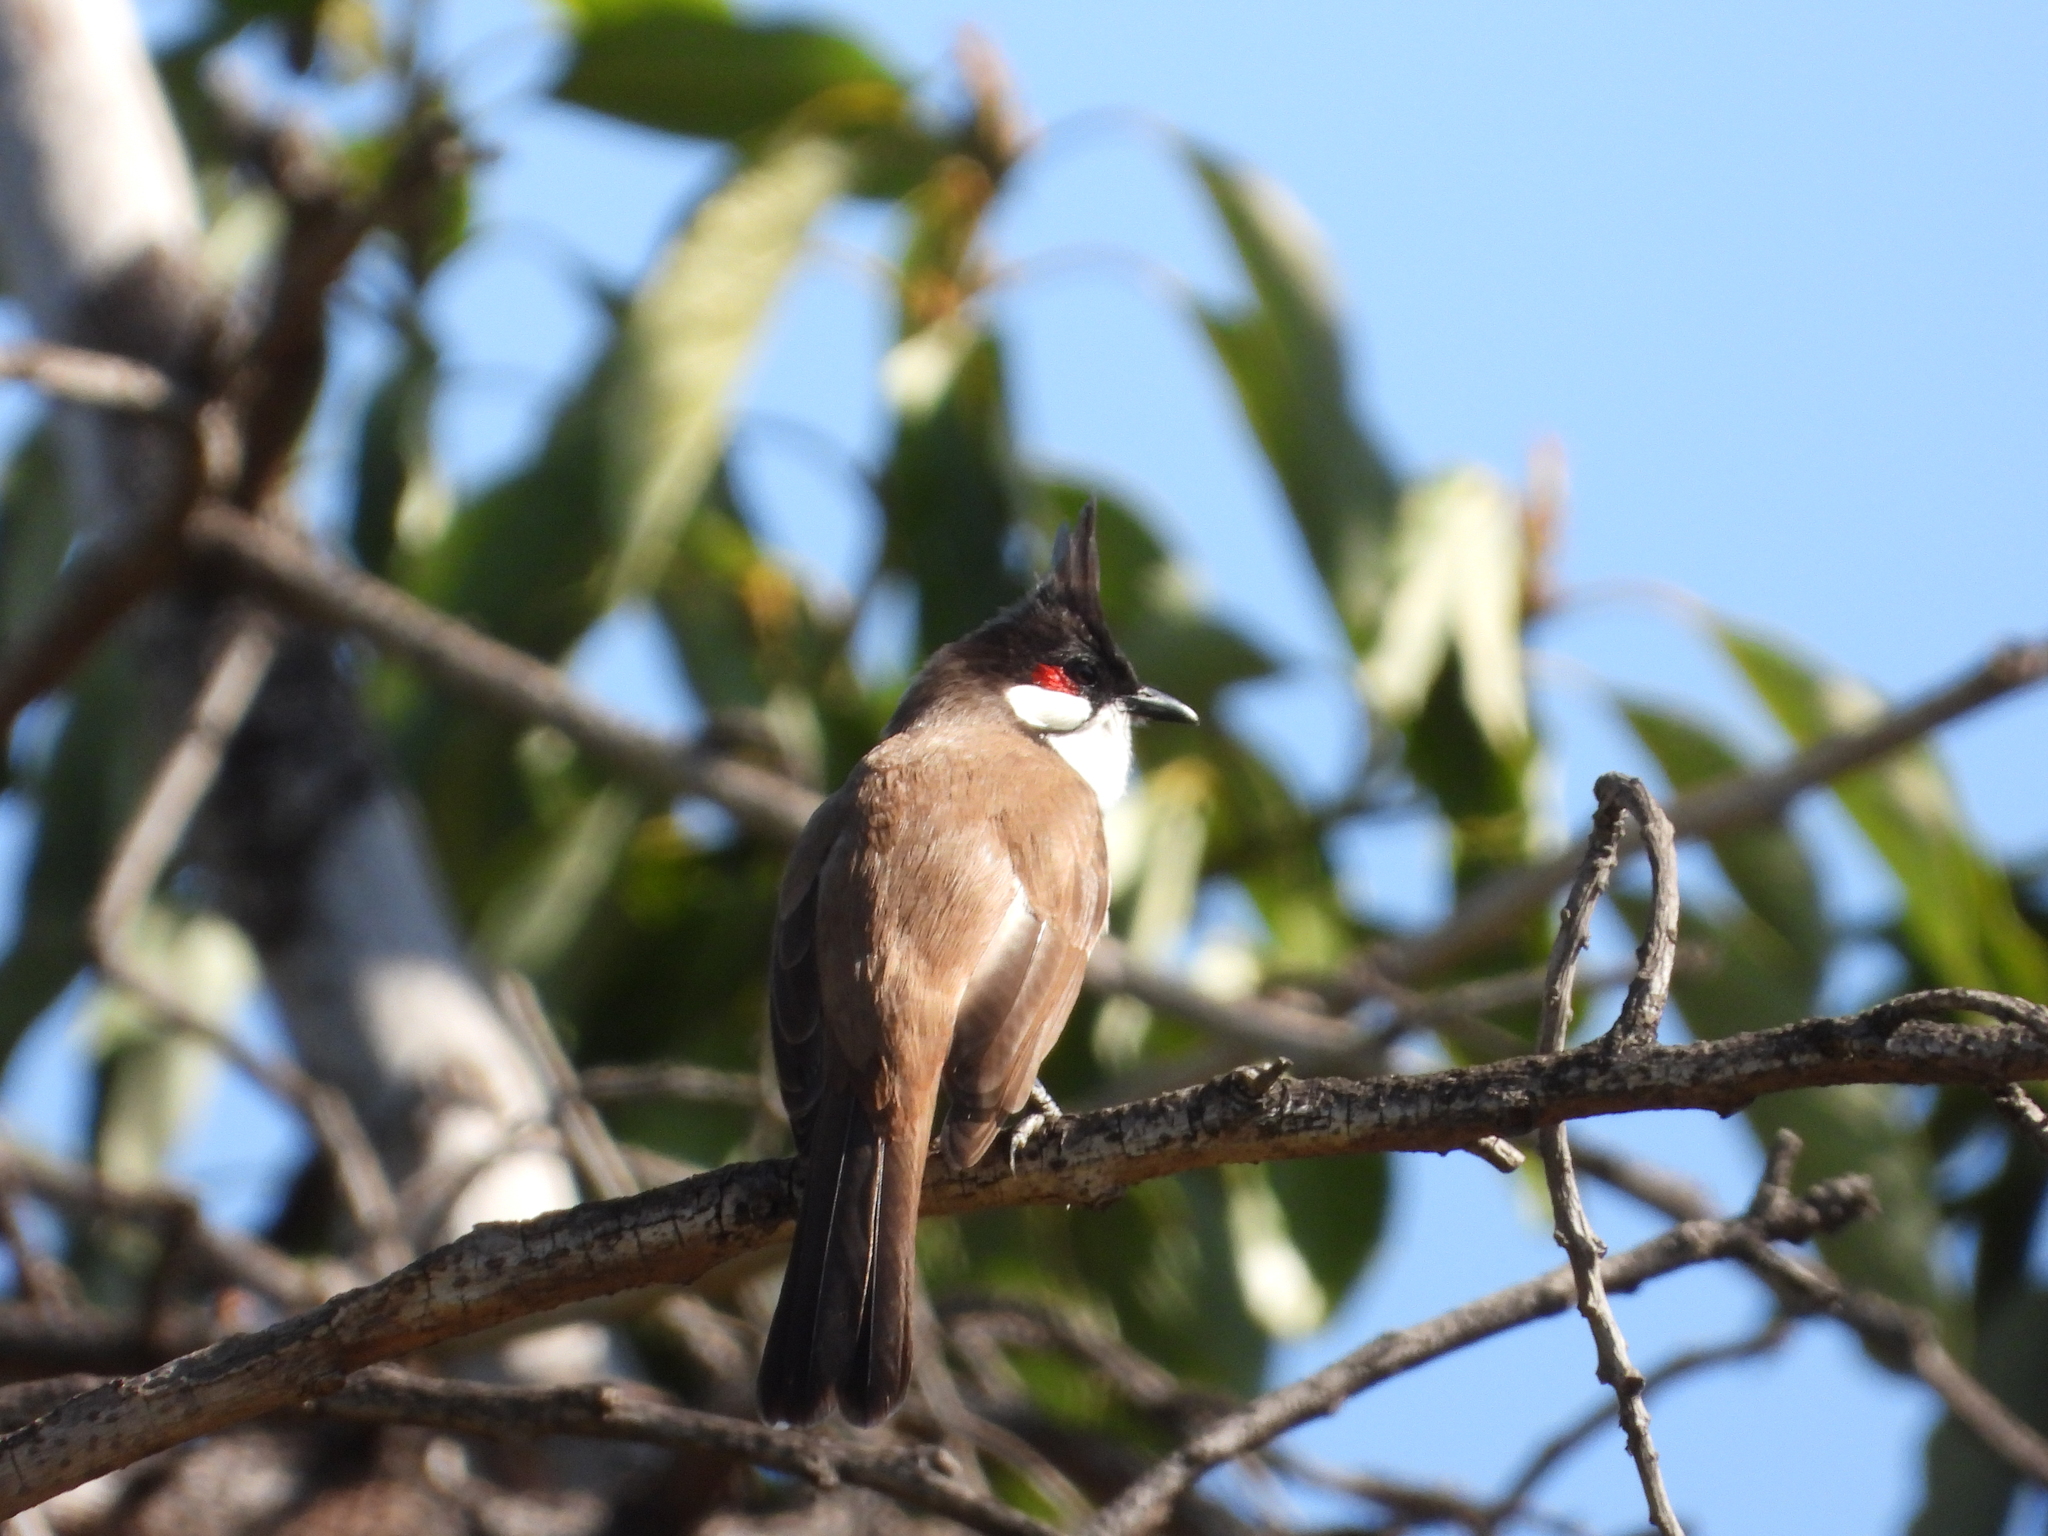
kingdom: Animalia
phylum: Chordata
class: Aves
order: Passeriformes
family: Pycnonotidae
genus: Pycnonotus
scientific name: Pycnonotus jocosus
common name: Red-whiskered bulbul
